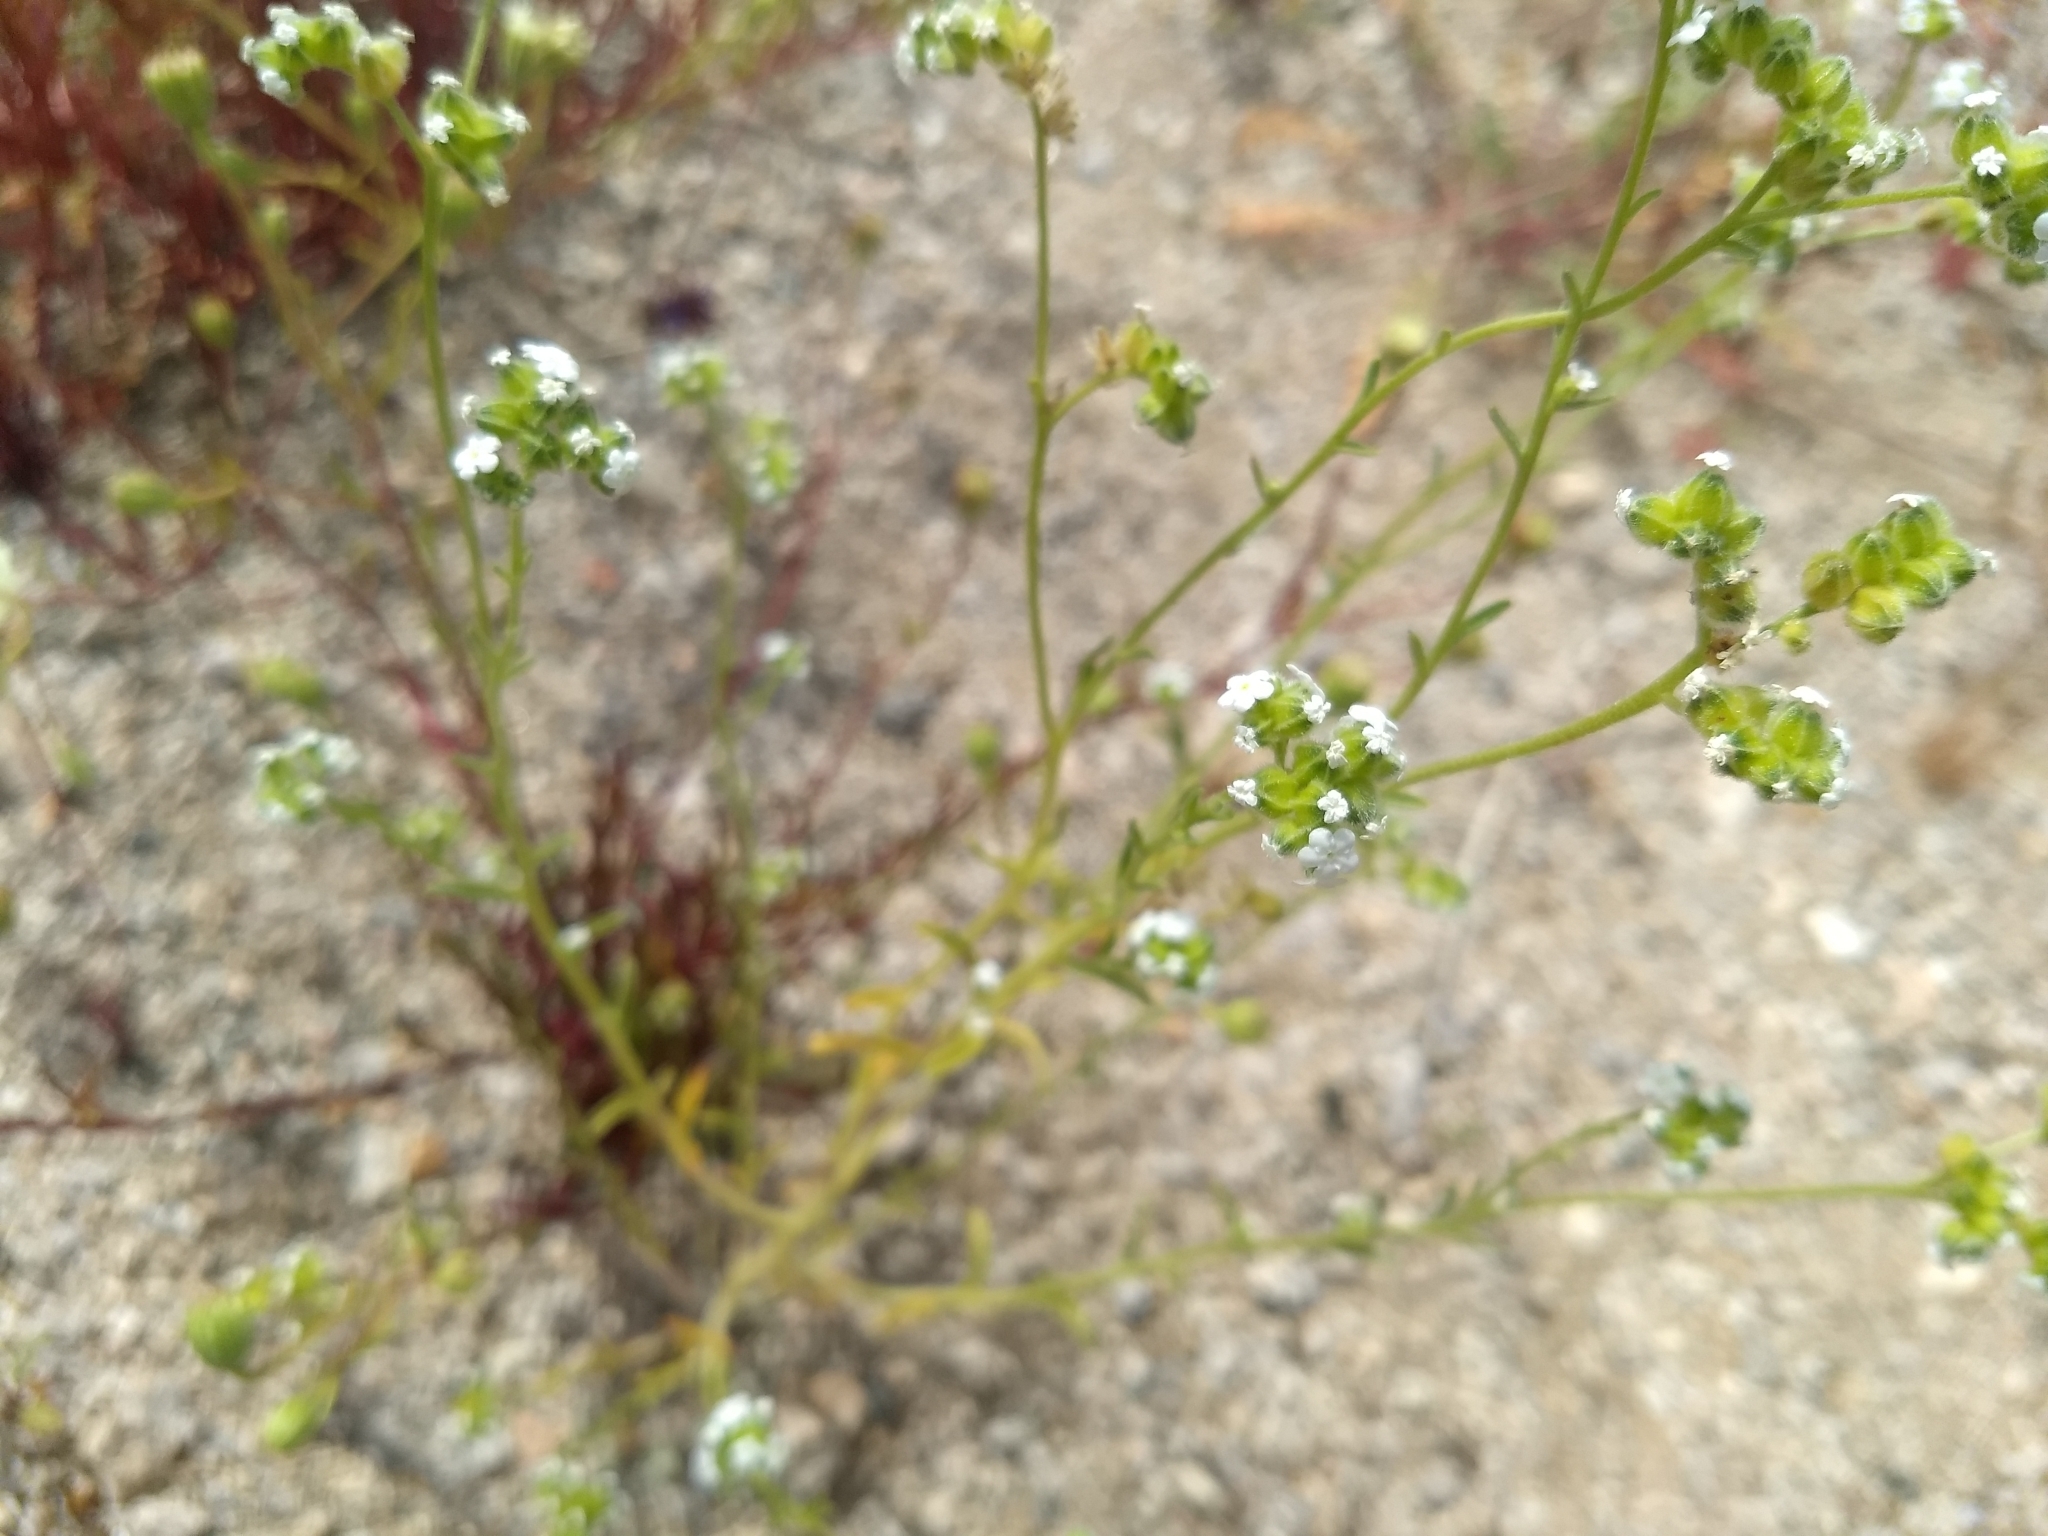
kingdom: Plantae
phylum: Tracheophyta
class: Magnoliopsida
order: Boraginales
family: Boraginaceae
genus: Cryptantha
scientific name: Cryptantha pterocarya
